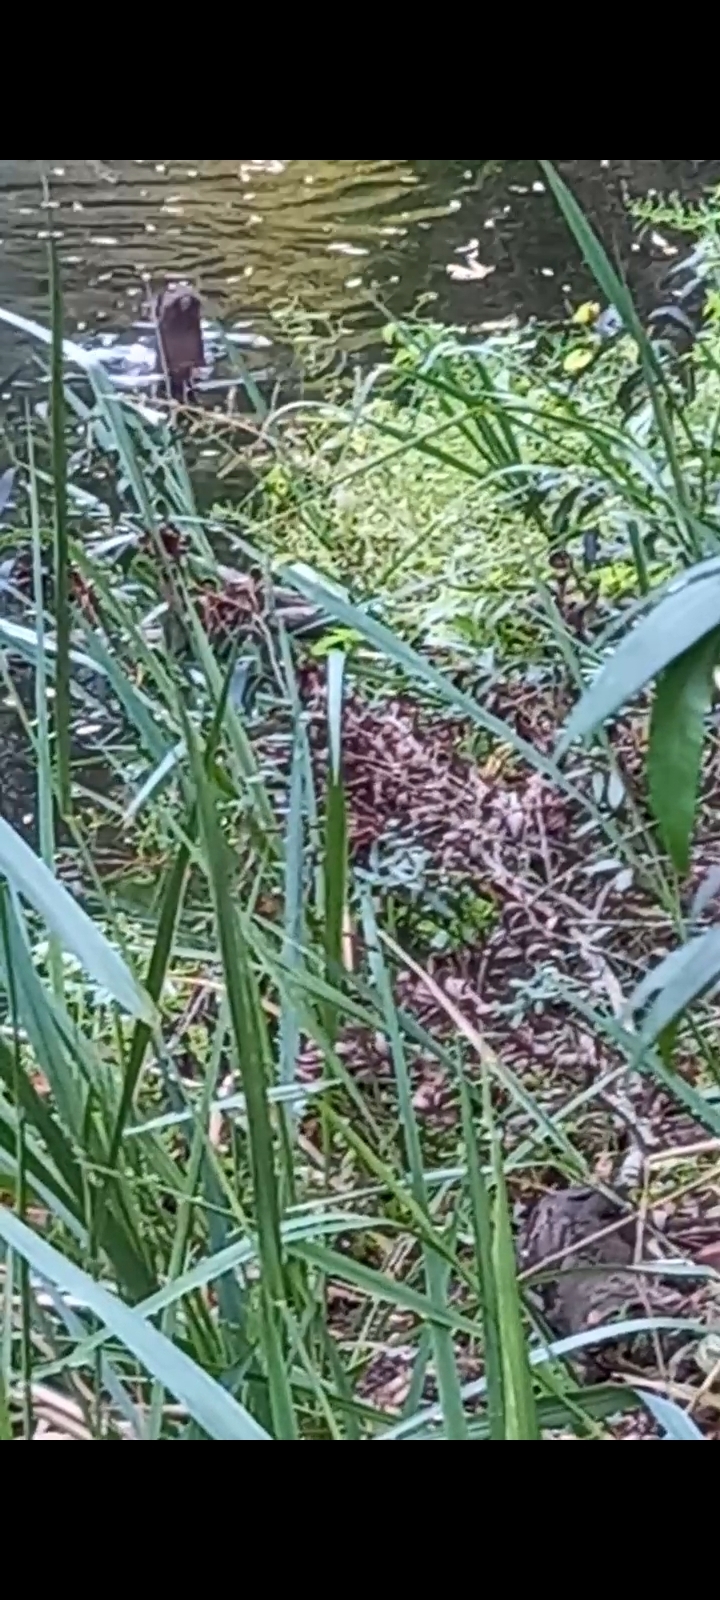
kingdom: Animalia
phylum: Chordata
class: Mammalia
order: Carnivora
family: Mustelidae
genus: Lontra
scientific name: Lontra longicaudis
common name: Neotropical otter
